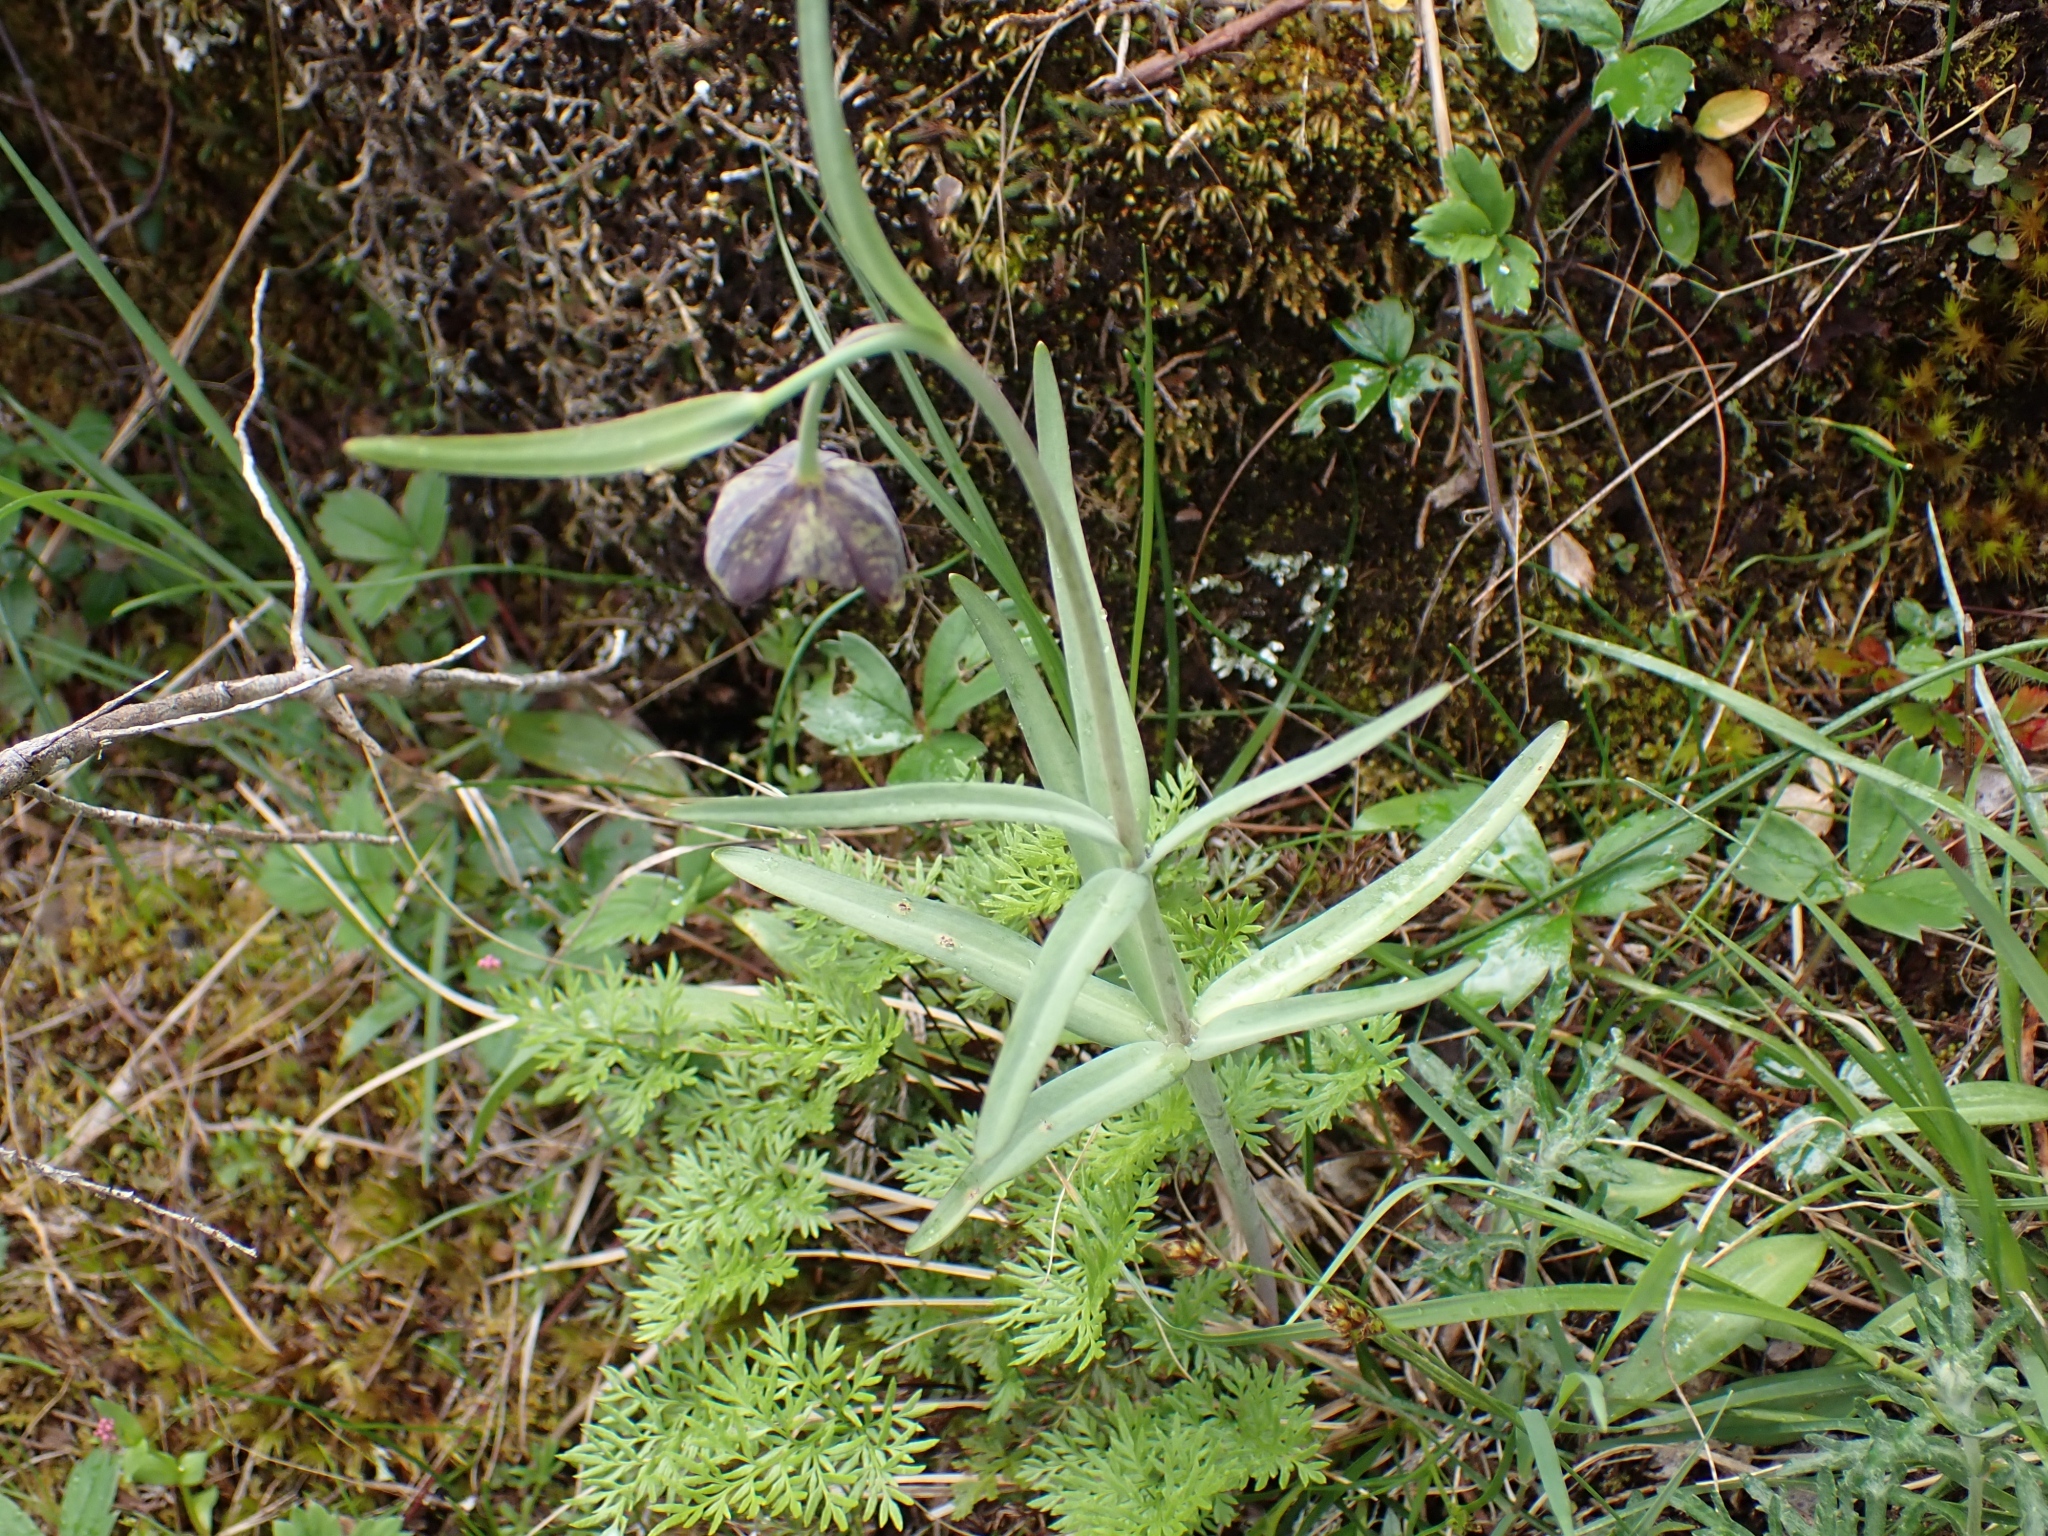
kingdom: Plantae
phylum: Tracheophyta
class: Liliopsida
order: Liliales
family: Liliaceae
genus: Fritillaria
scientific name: Fritillaria affinis
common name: Ojai fritillary
